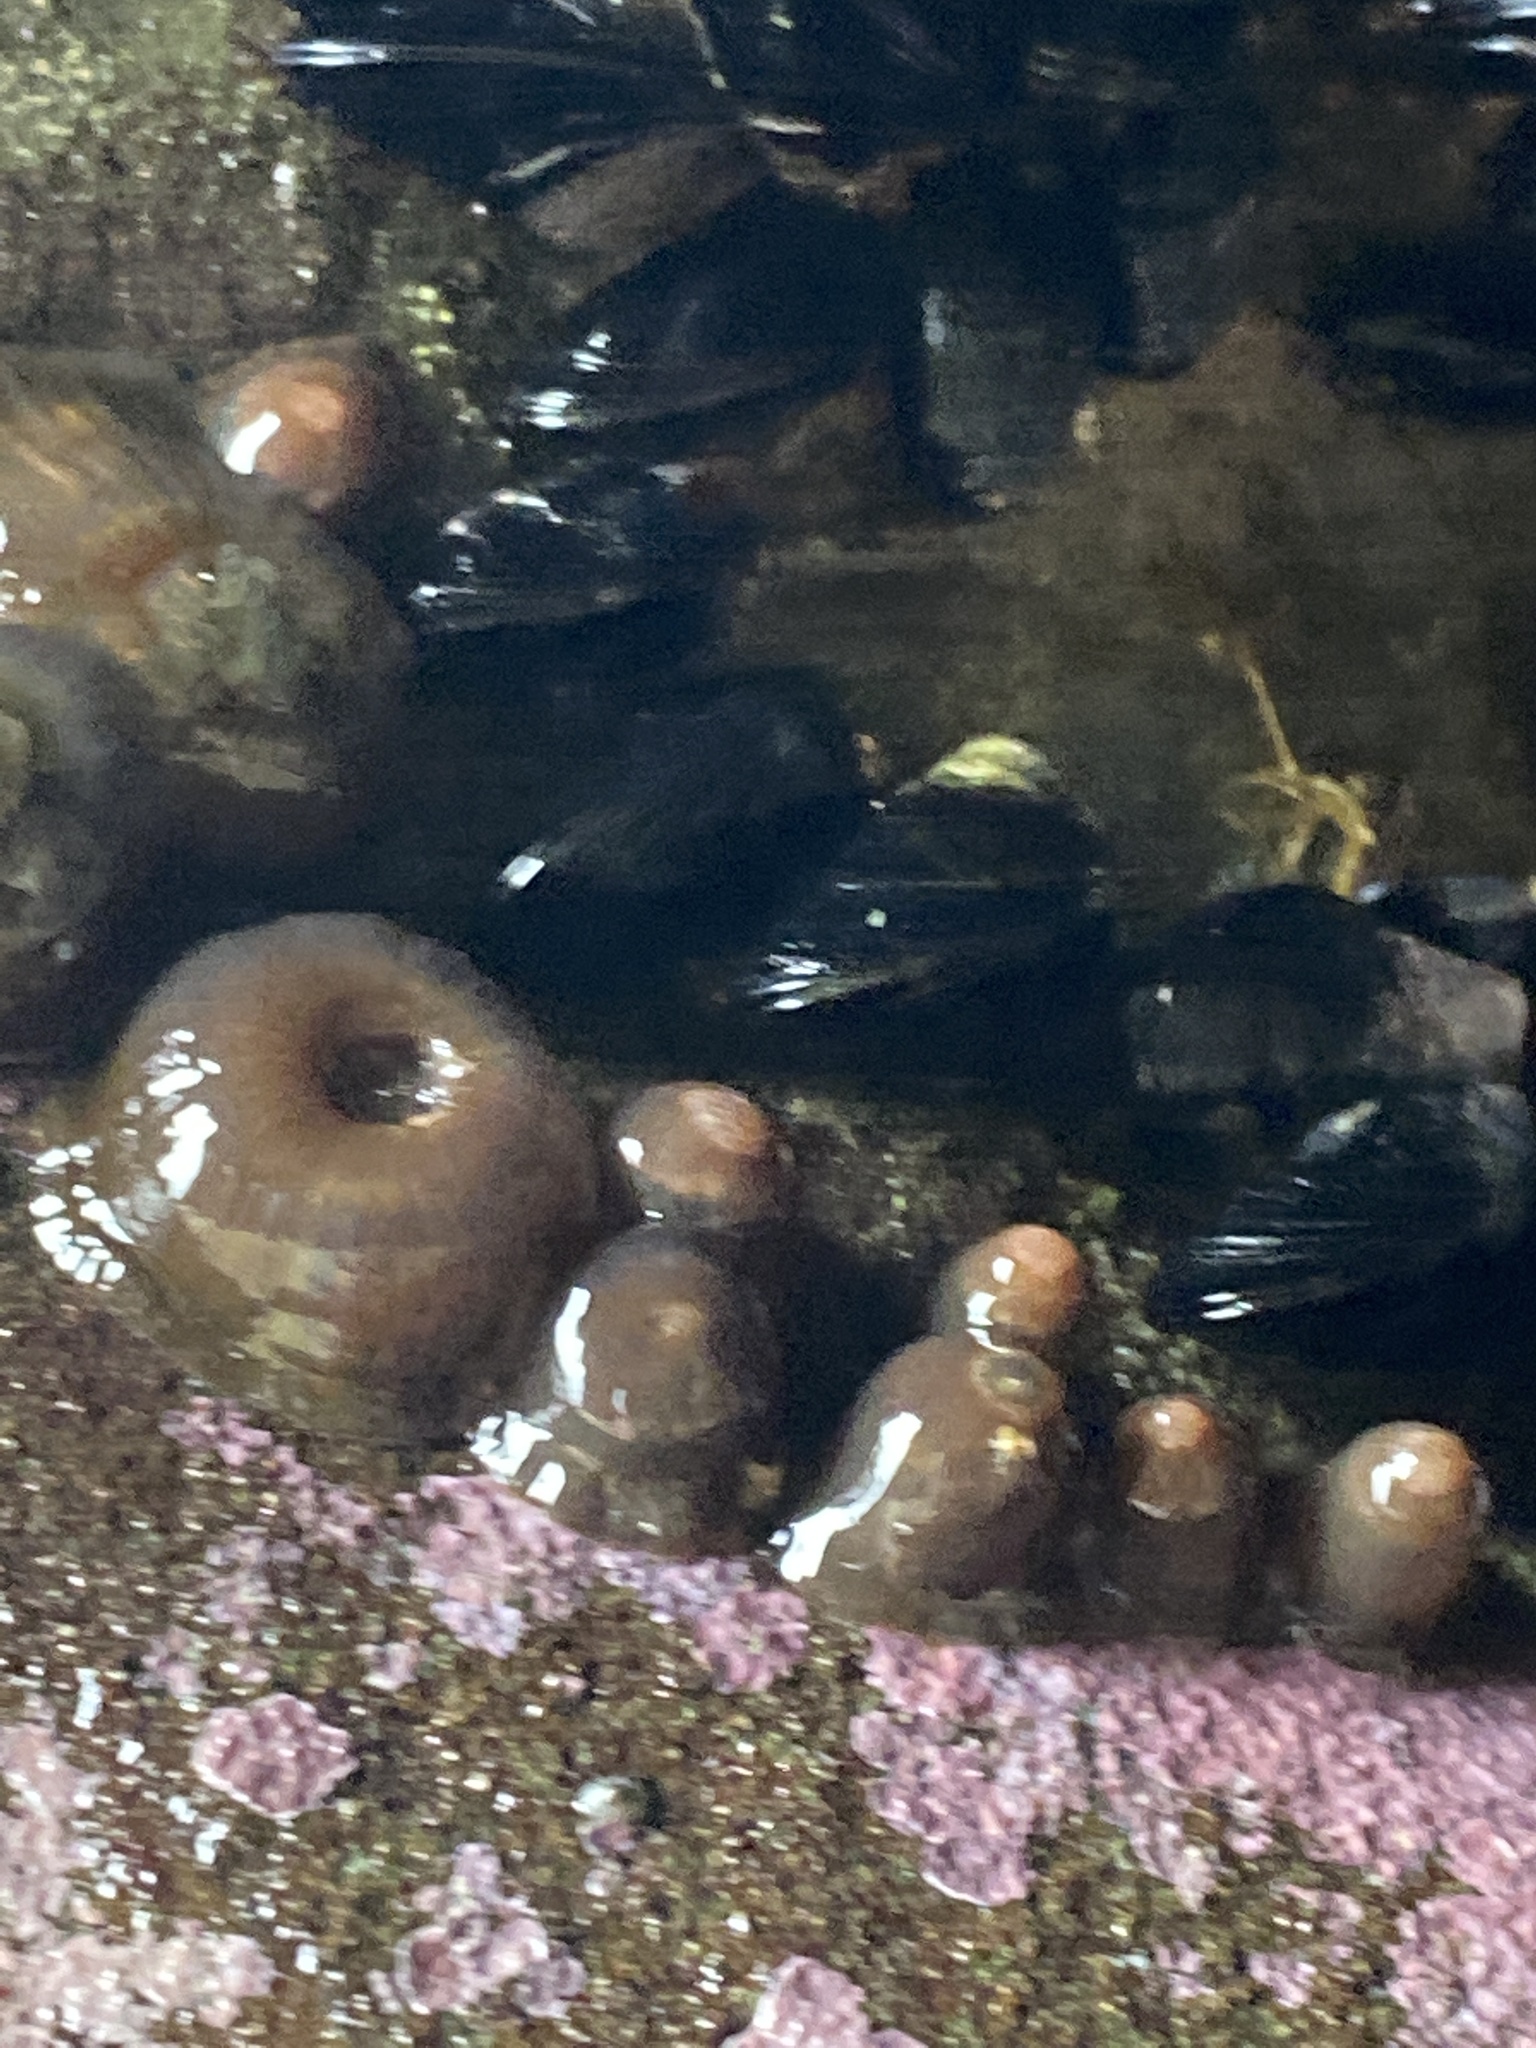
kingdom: Animalia
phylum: Cnidaria
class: Anthozoa
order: Actiniaria
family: Actiniidae
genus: Isactinia
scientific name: Isactinia olivacea
